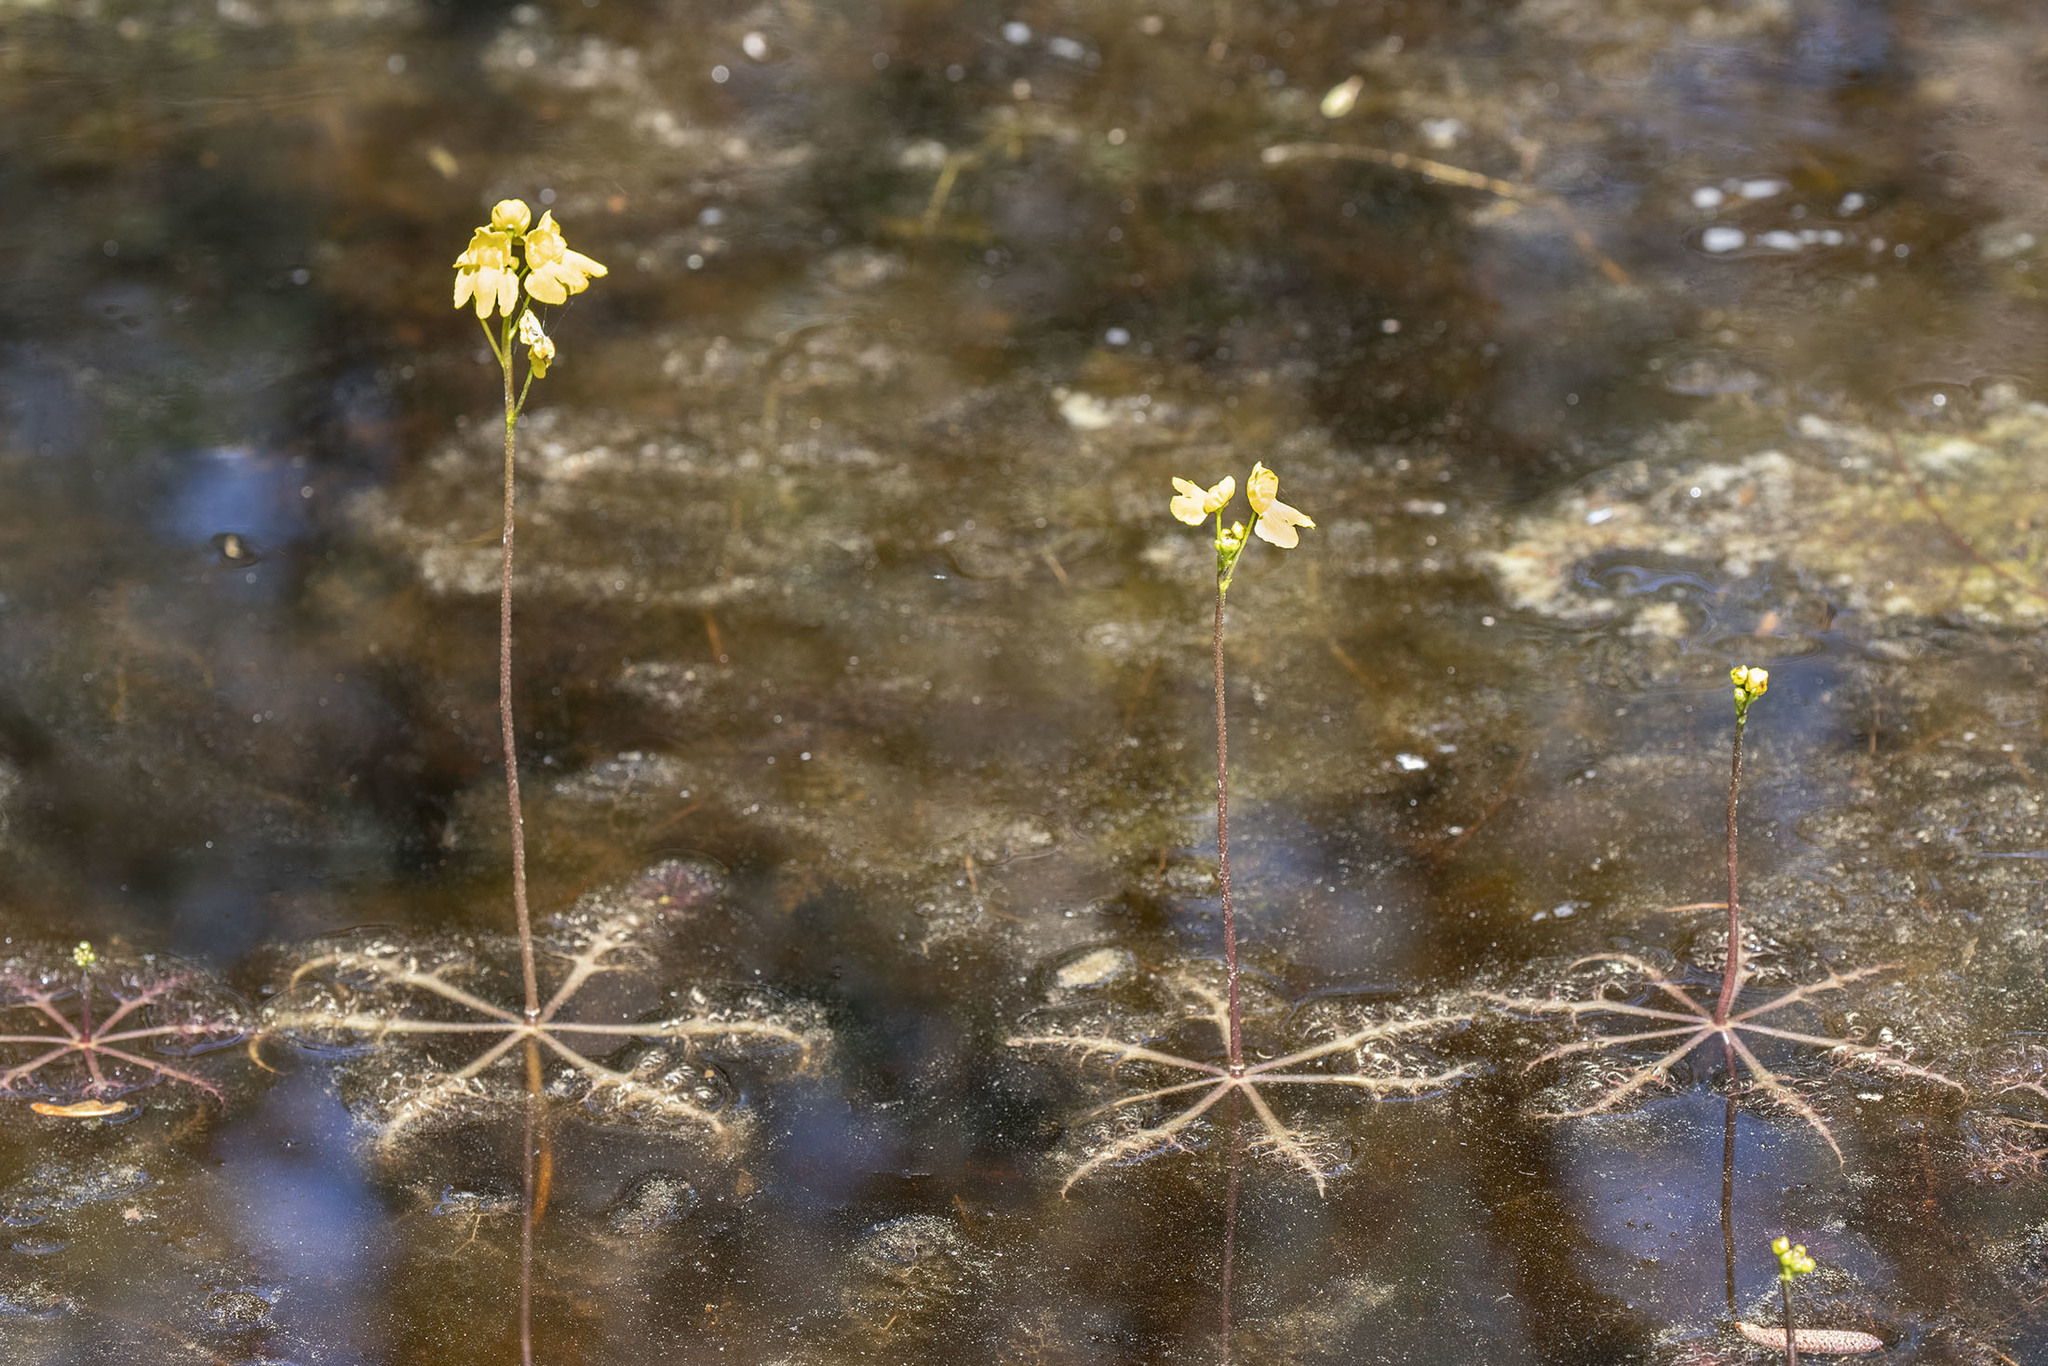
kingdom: Plantae
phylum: Tracheophyta
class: Magnoliopsida
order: Lamiales
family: Lentibulariaceae
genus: Utricularia
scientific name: Utricularia inflata
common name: Floating bladderwort
